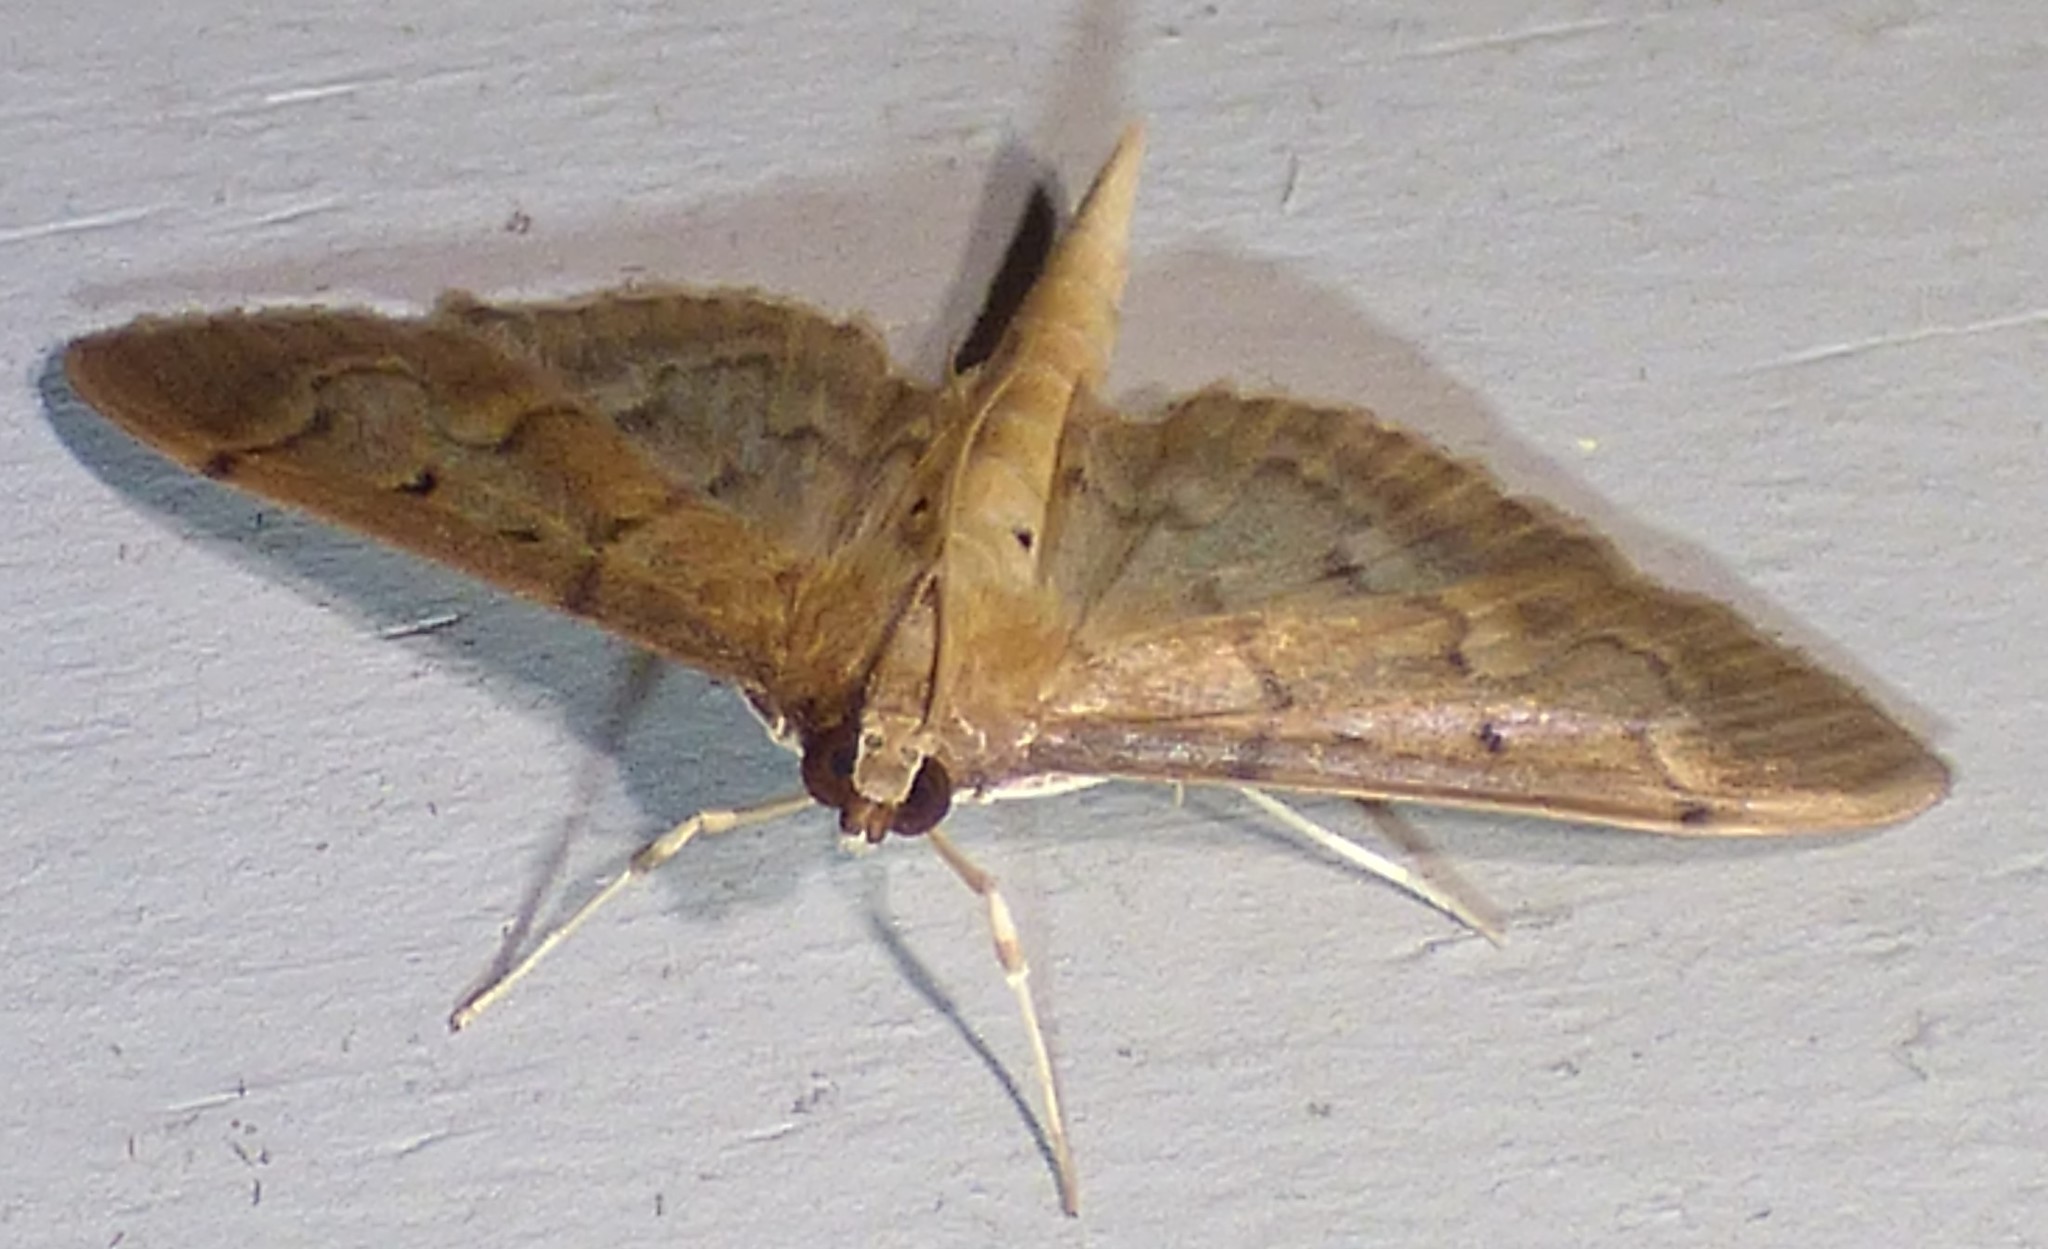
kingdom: Animalia
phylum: Arthropoda
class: Insecta
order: Lepidoptera
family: Crambidae
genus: Herpetogramma
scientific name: Herpetogramma bipunctalis
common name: Southern beet webworm
